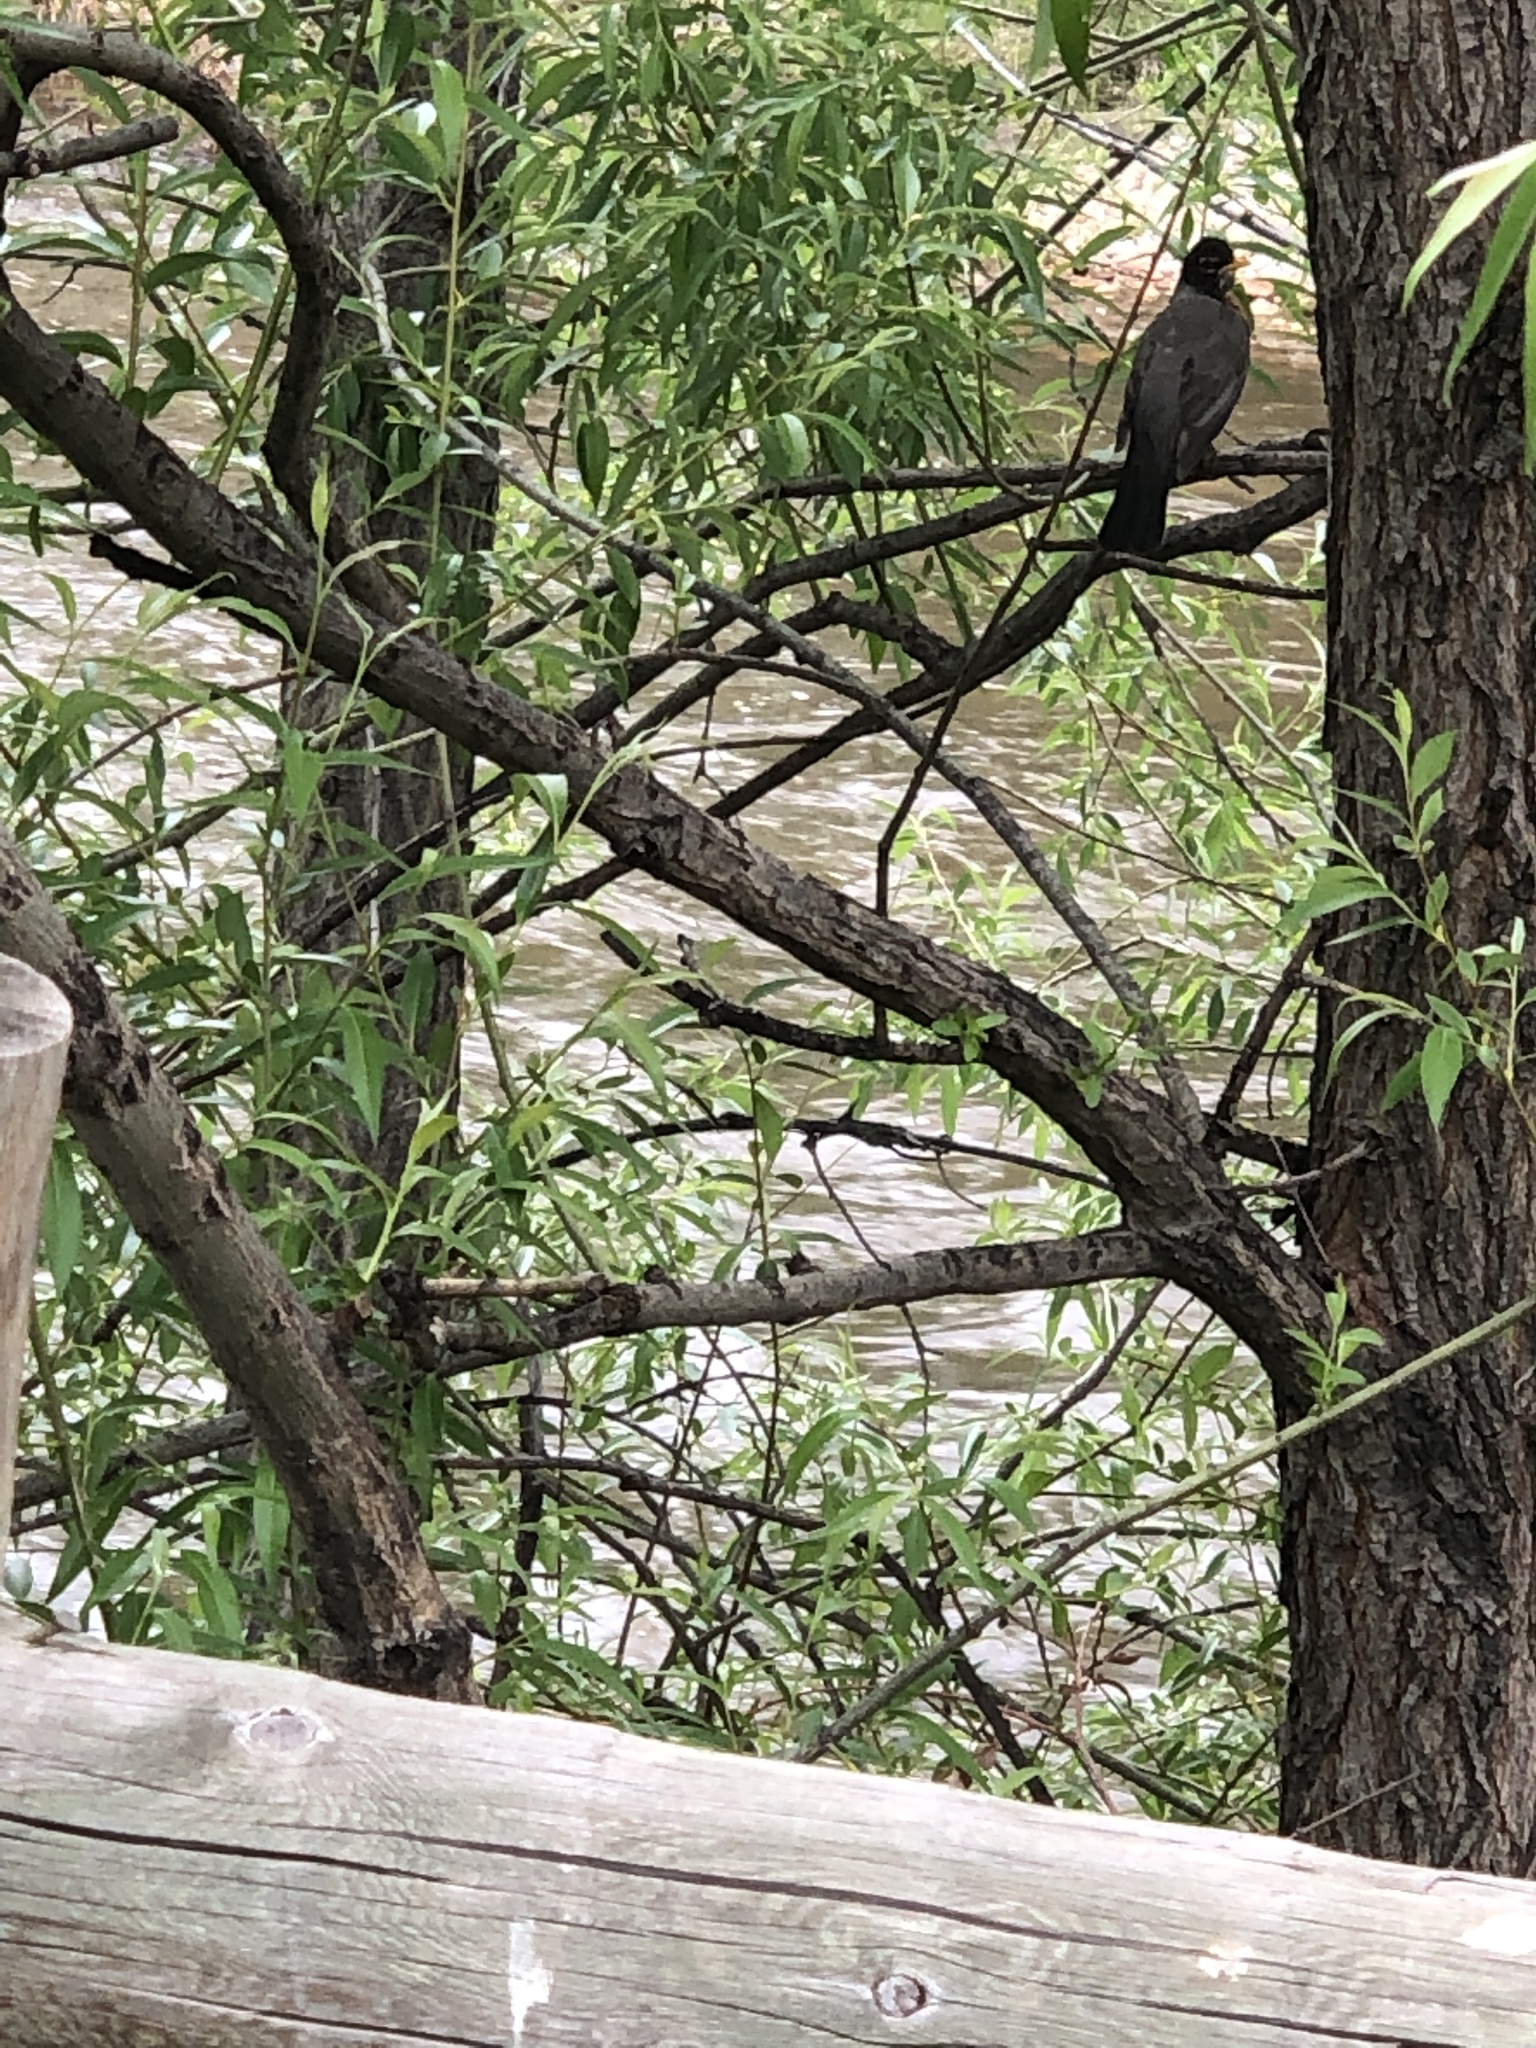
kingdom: Animalia
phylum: Chordata
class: Aves
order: Passeriformes
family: Turdidae
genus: Turdus
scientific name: Turdus migratorius
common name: American robin
